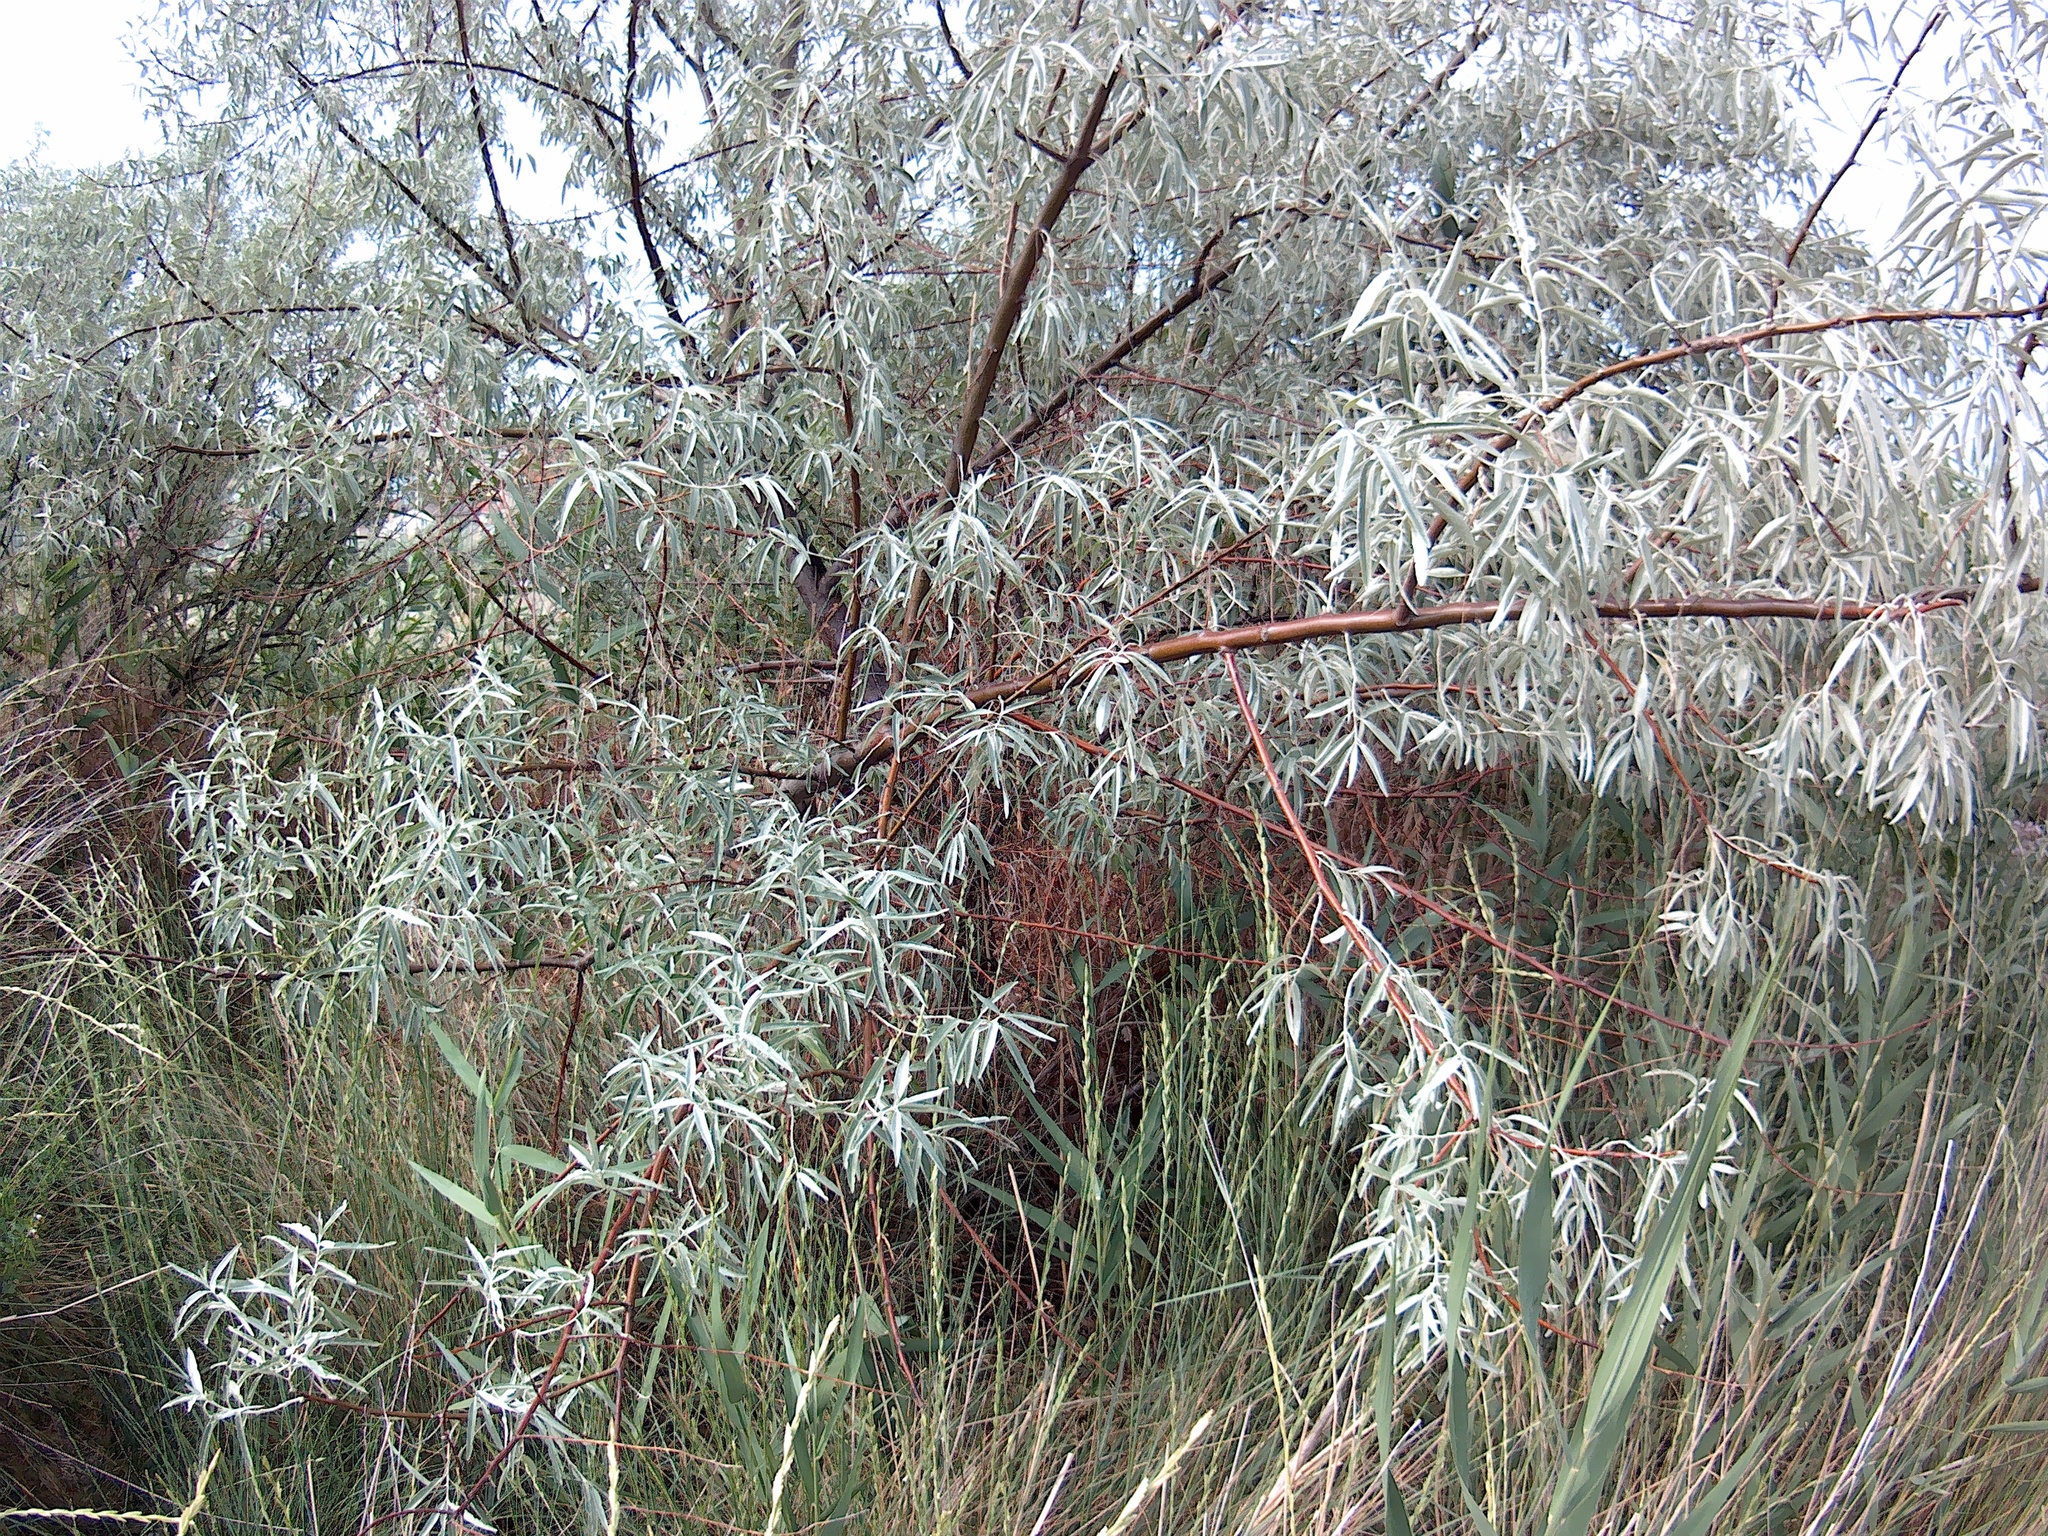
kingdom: Plantae
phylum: Tracheophyta
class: Magnoliopsida
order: Rosales
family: Elaeagnaceae
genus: Elaeagnus
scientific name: Elaeagnus angustifolia
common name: Russian olive
